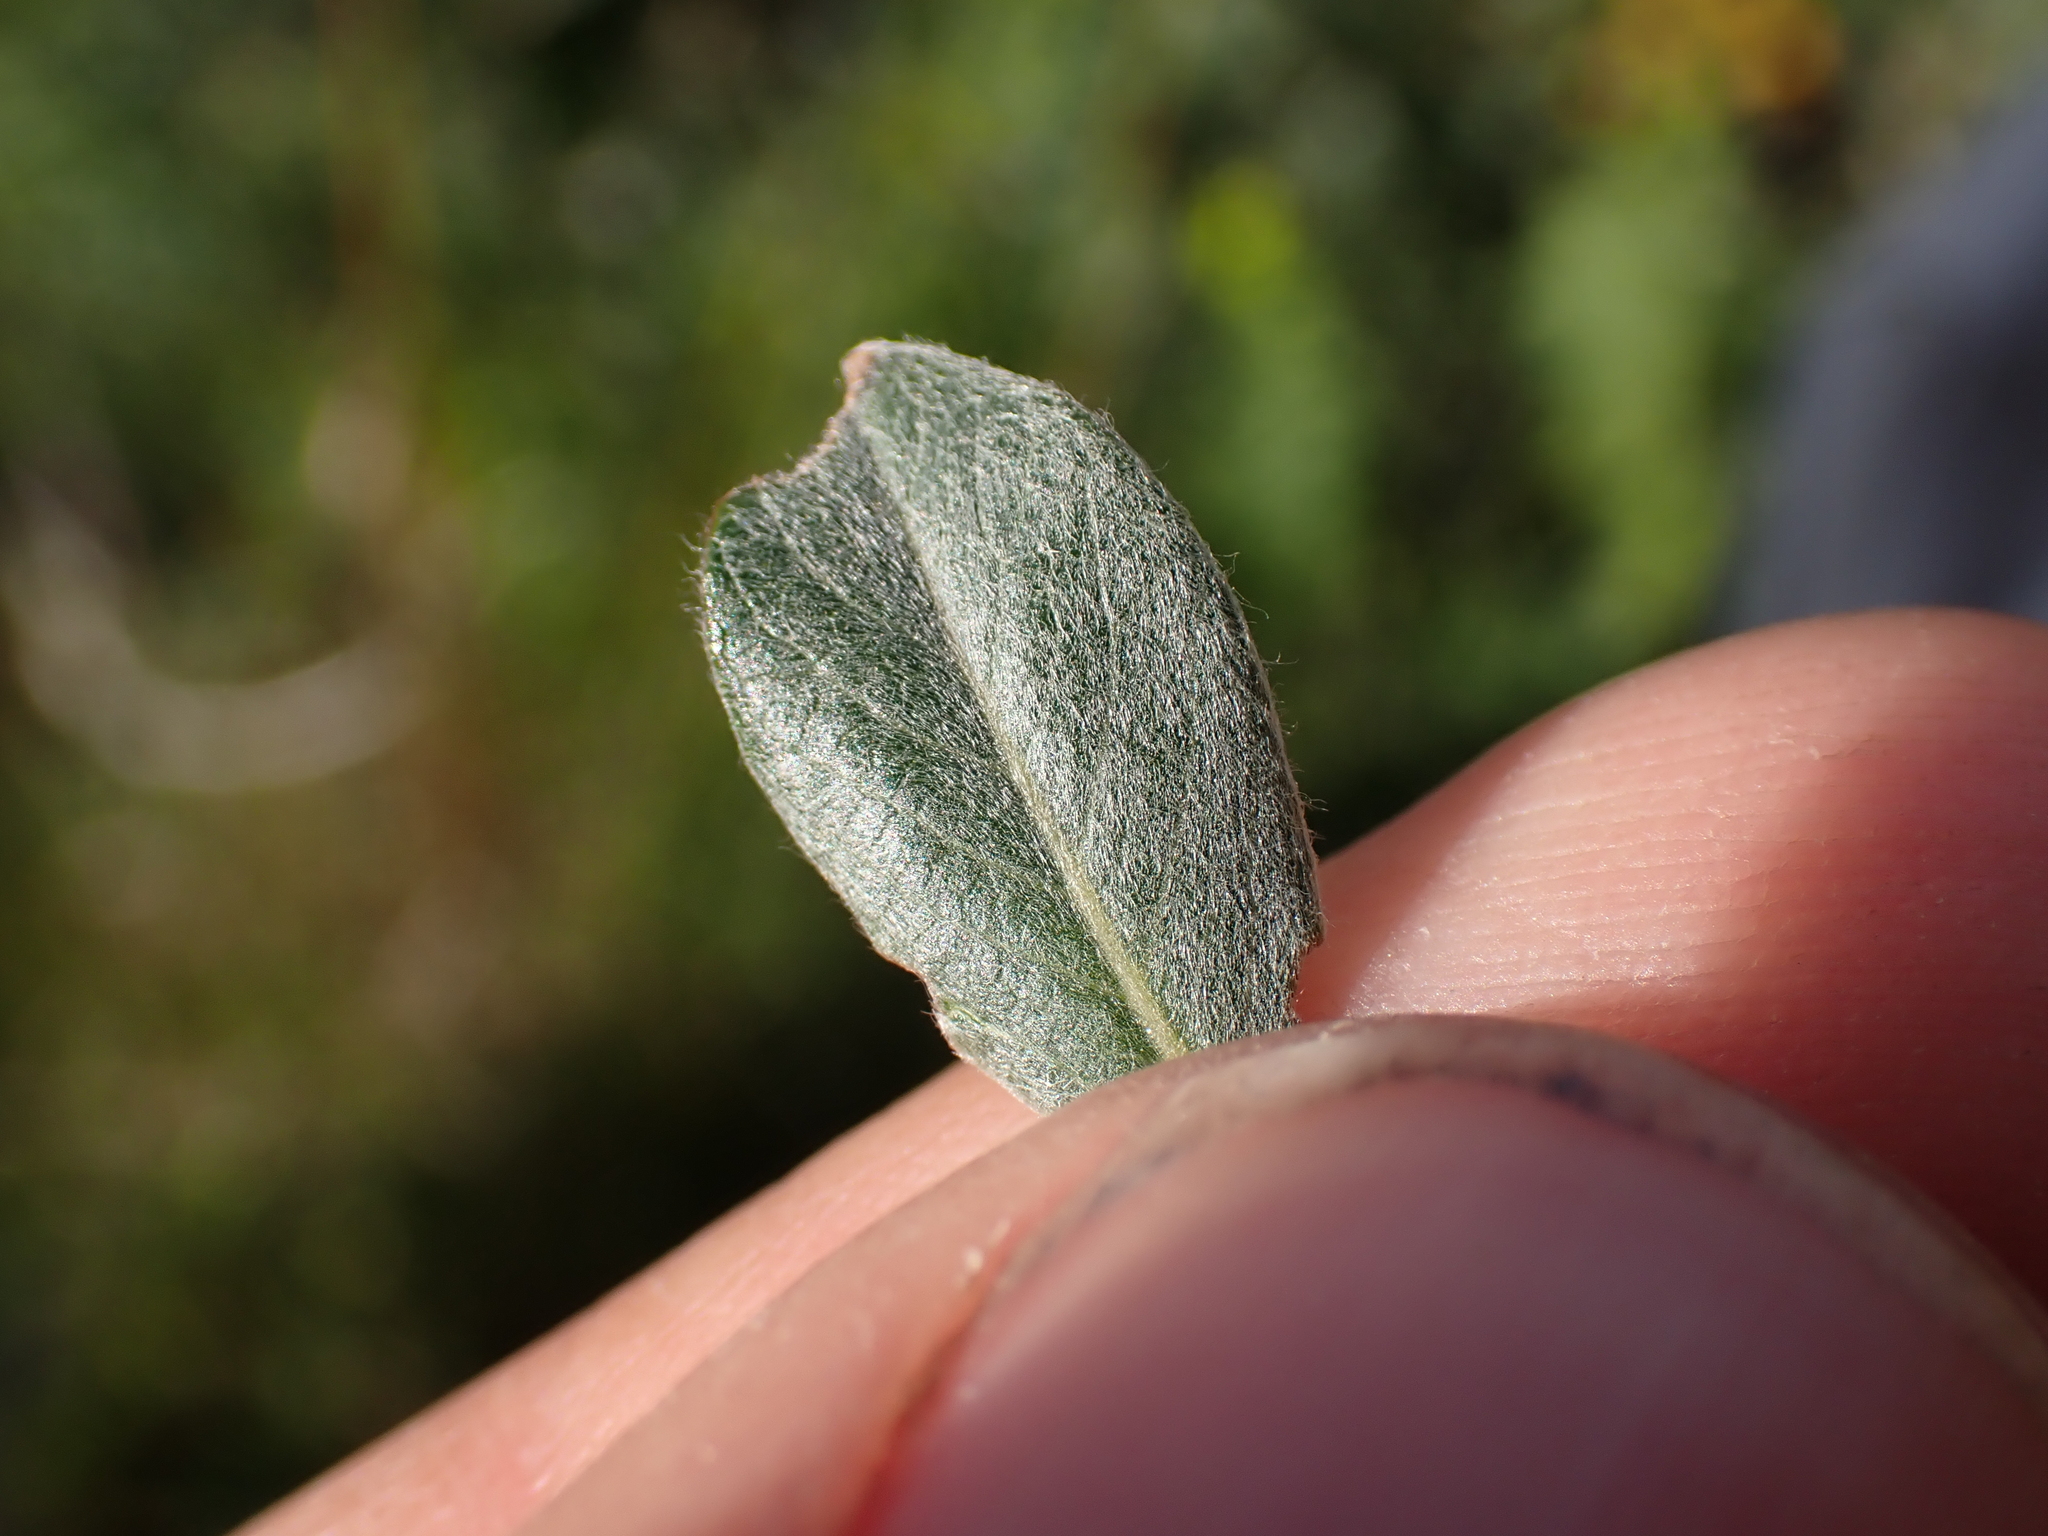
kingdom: Plantae
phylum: Tracheophyta
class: Magnoliopsida
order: Malpighiales
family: Salicaceae
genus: Salix
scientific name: Salix repens
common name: Creeping willow
